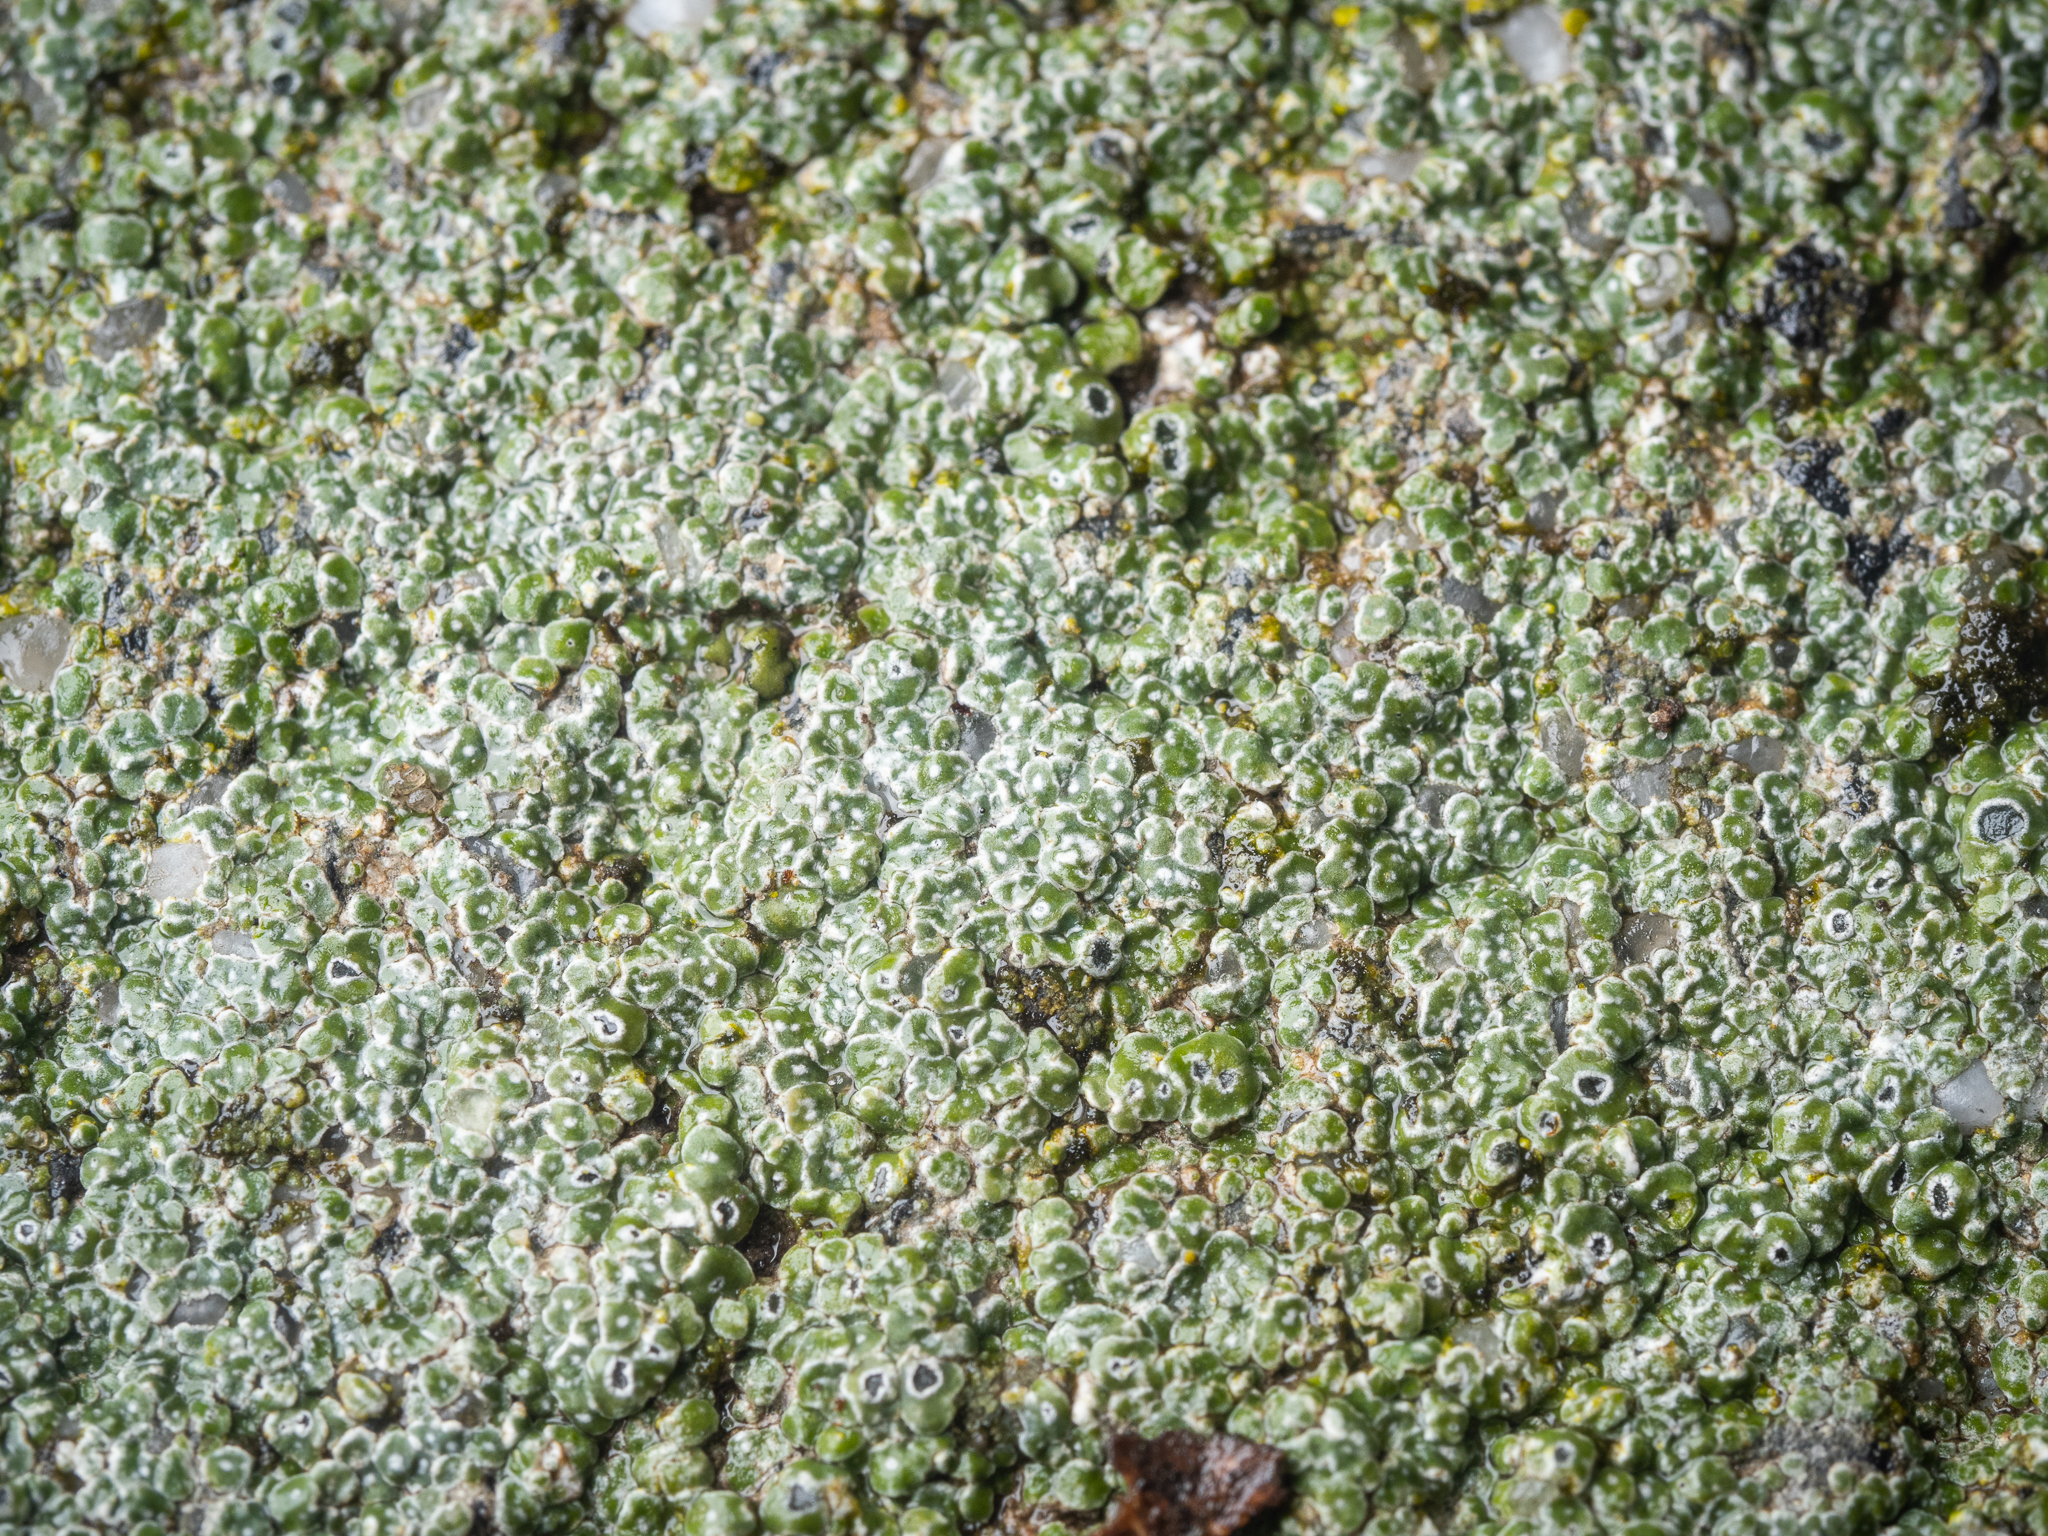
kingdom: Fungi
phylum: Ascomycota
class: Lecanoromycetes
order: Pertusariales
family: Megasporaceae
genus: Circinaria
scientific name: Circinaria contorta
